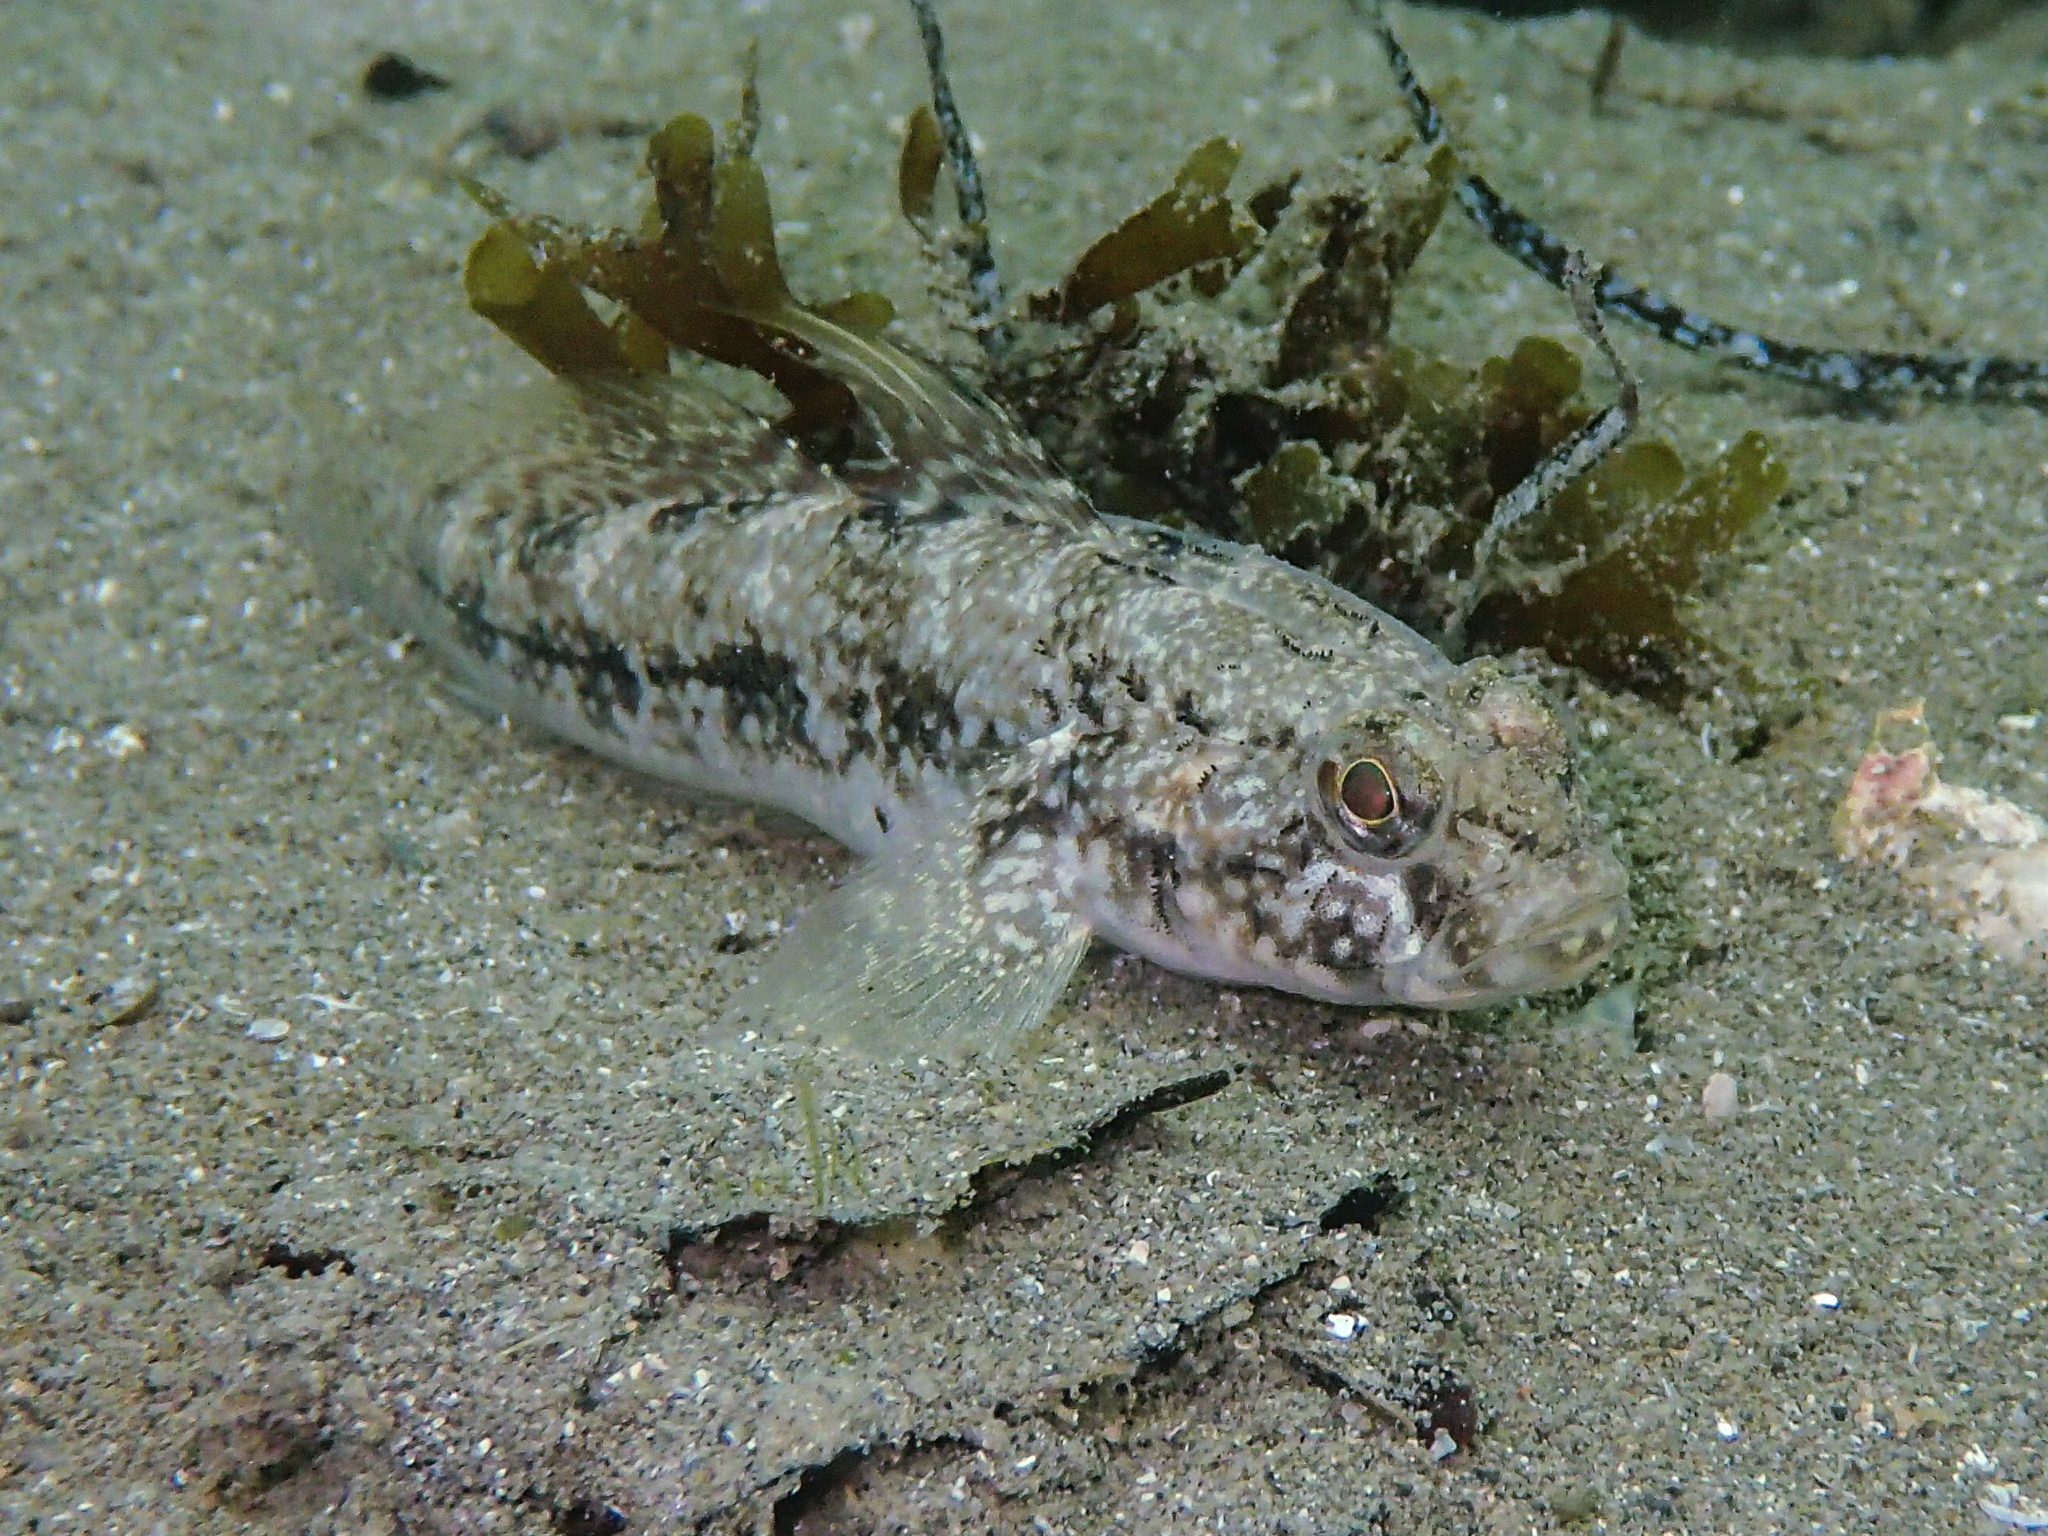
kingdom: Animalia
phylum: Chordata
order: Perciformes
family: Gobiidae
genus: Gobius
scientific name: Gobius niger
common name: Black goby
